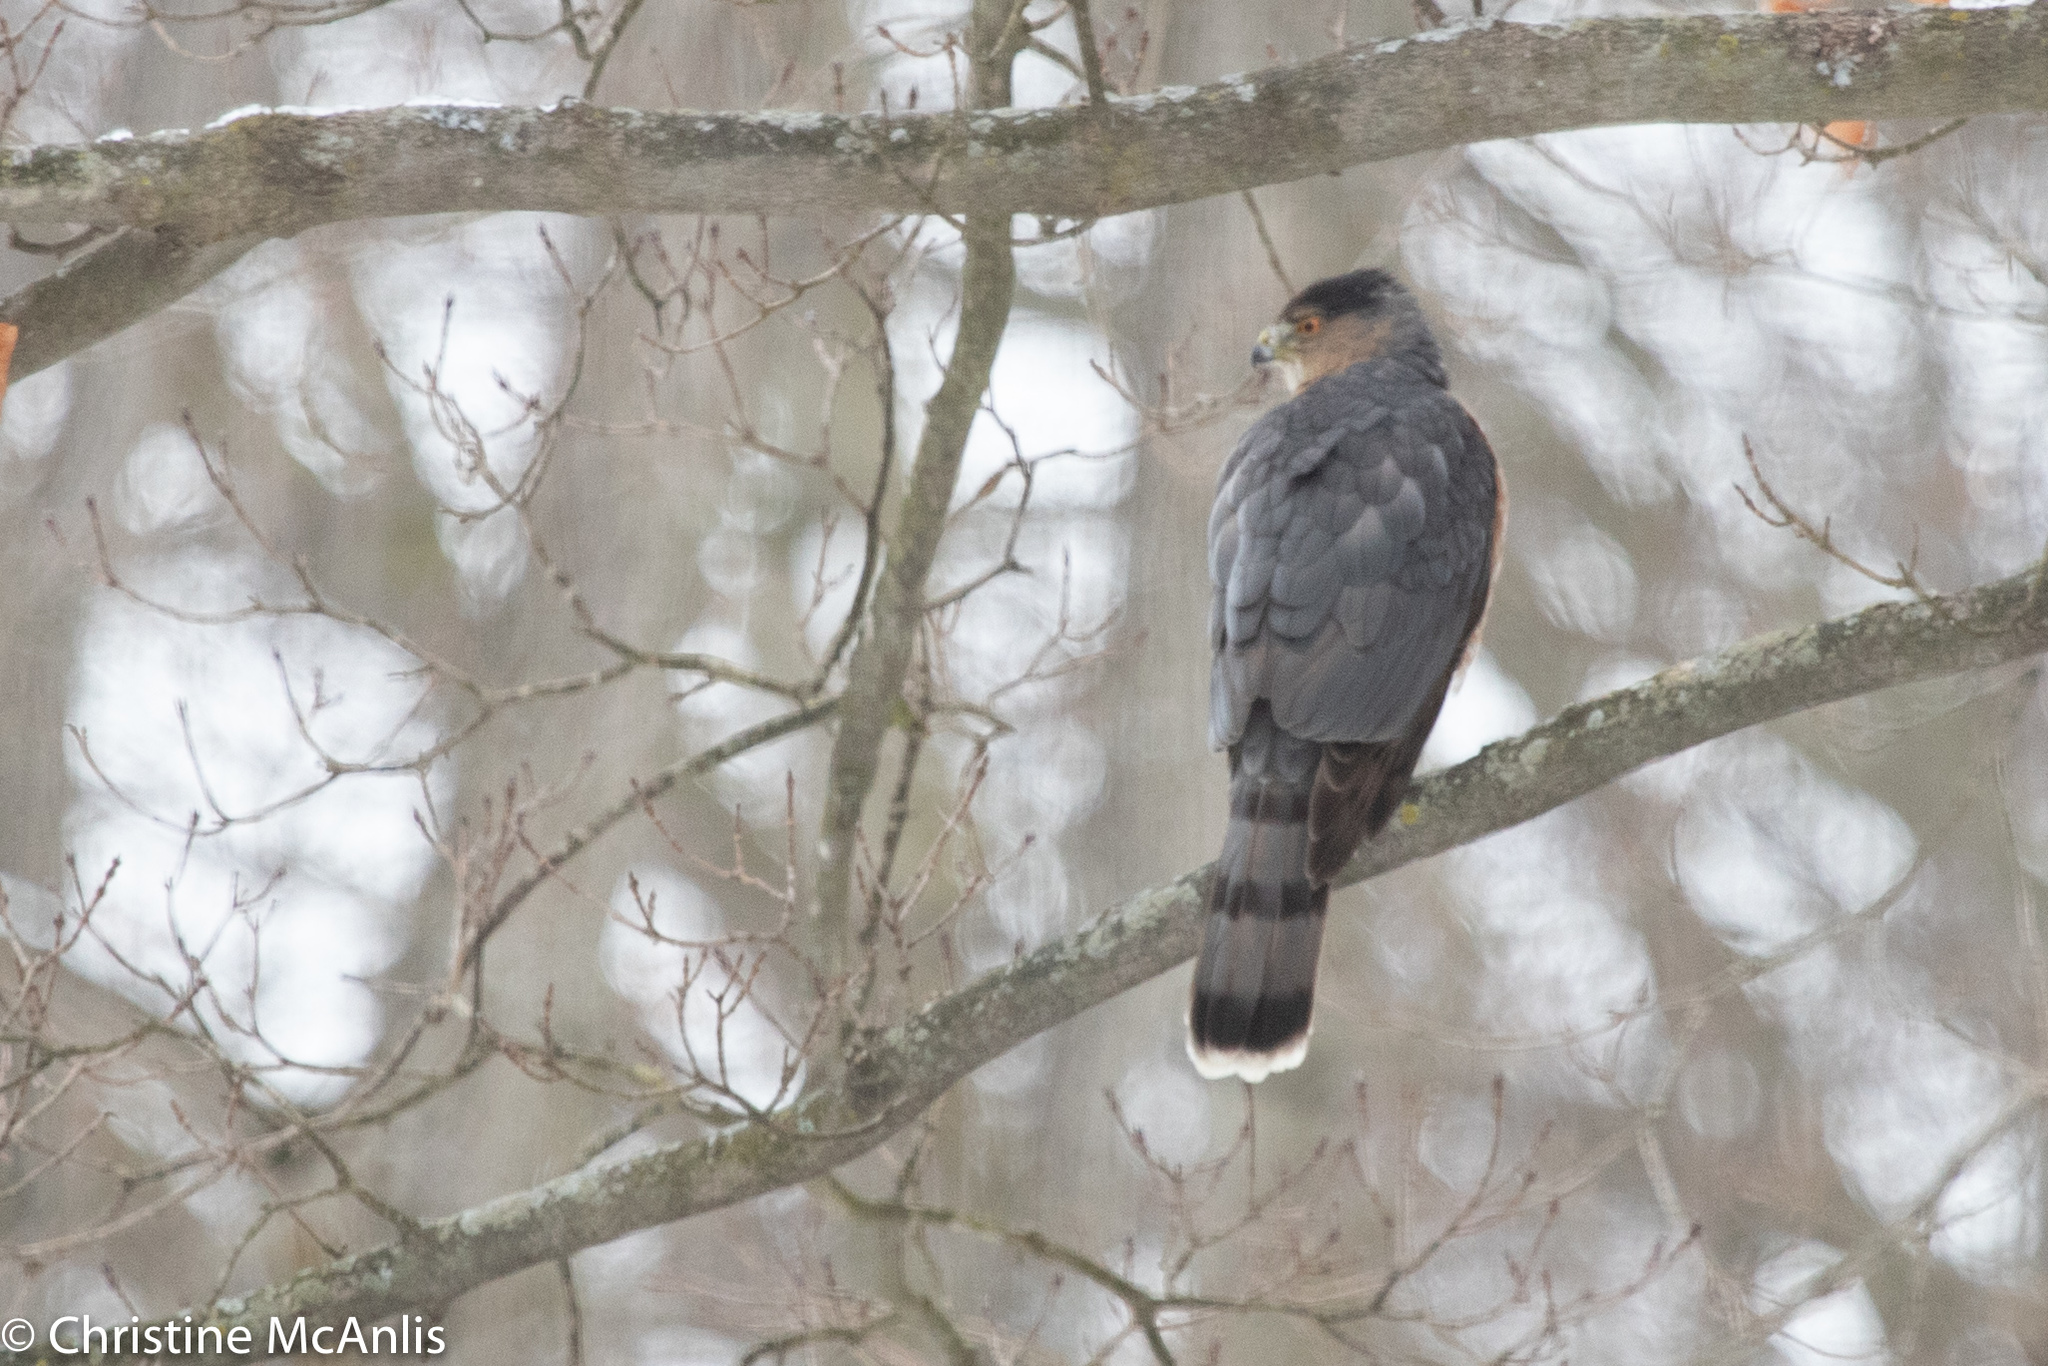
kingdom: Animalia
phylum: Chordata
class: Aves
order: Accipitriformes
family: Accipitridae
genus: Accipiter
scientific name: Accipiter cooperii
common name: Cooper's hawk
